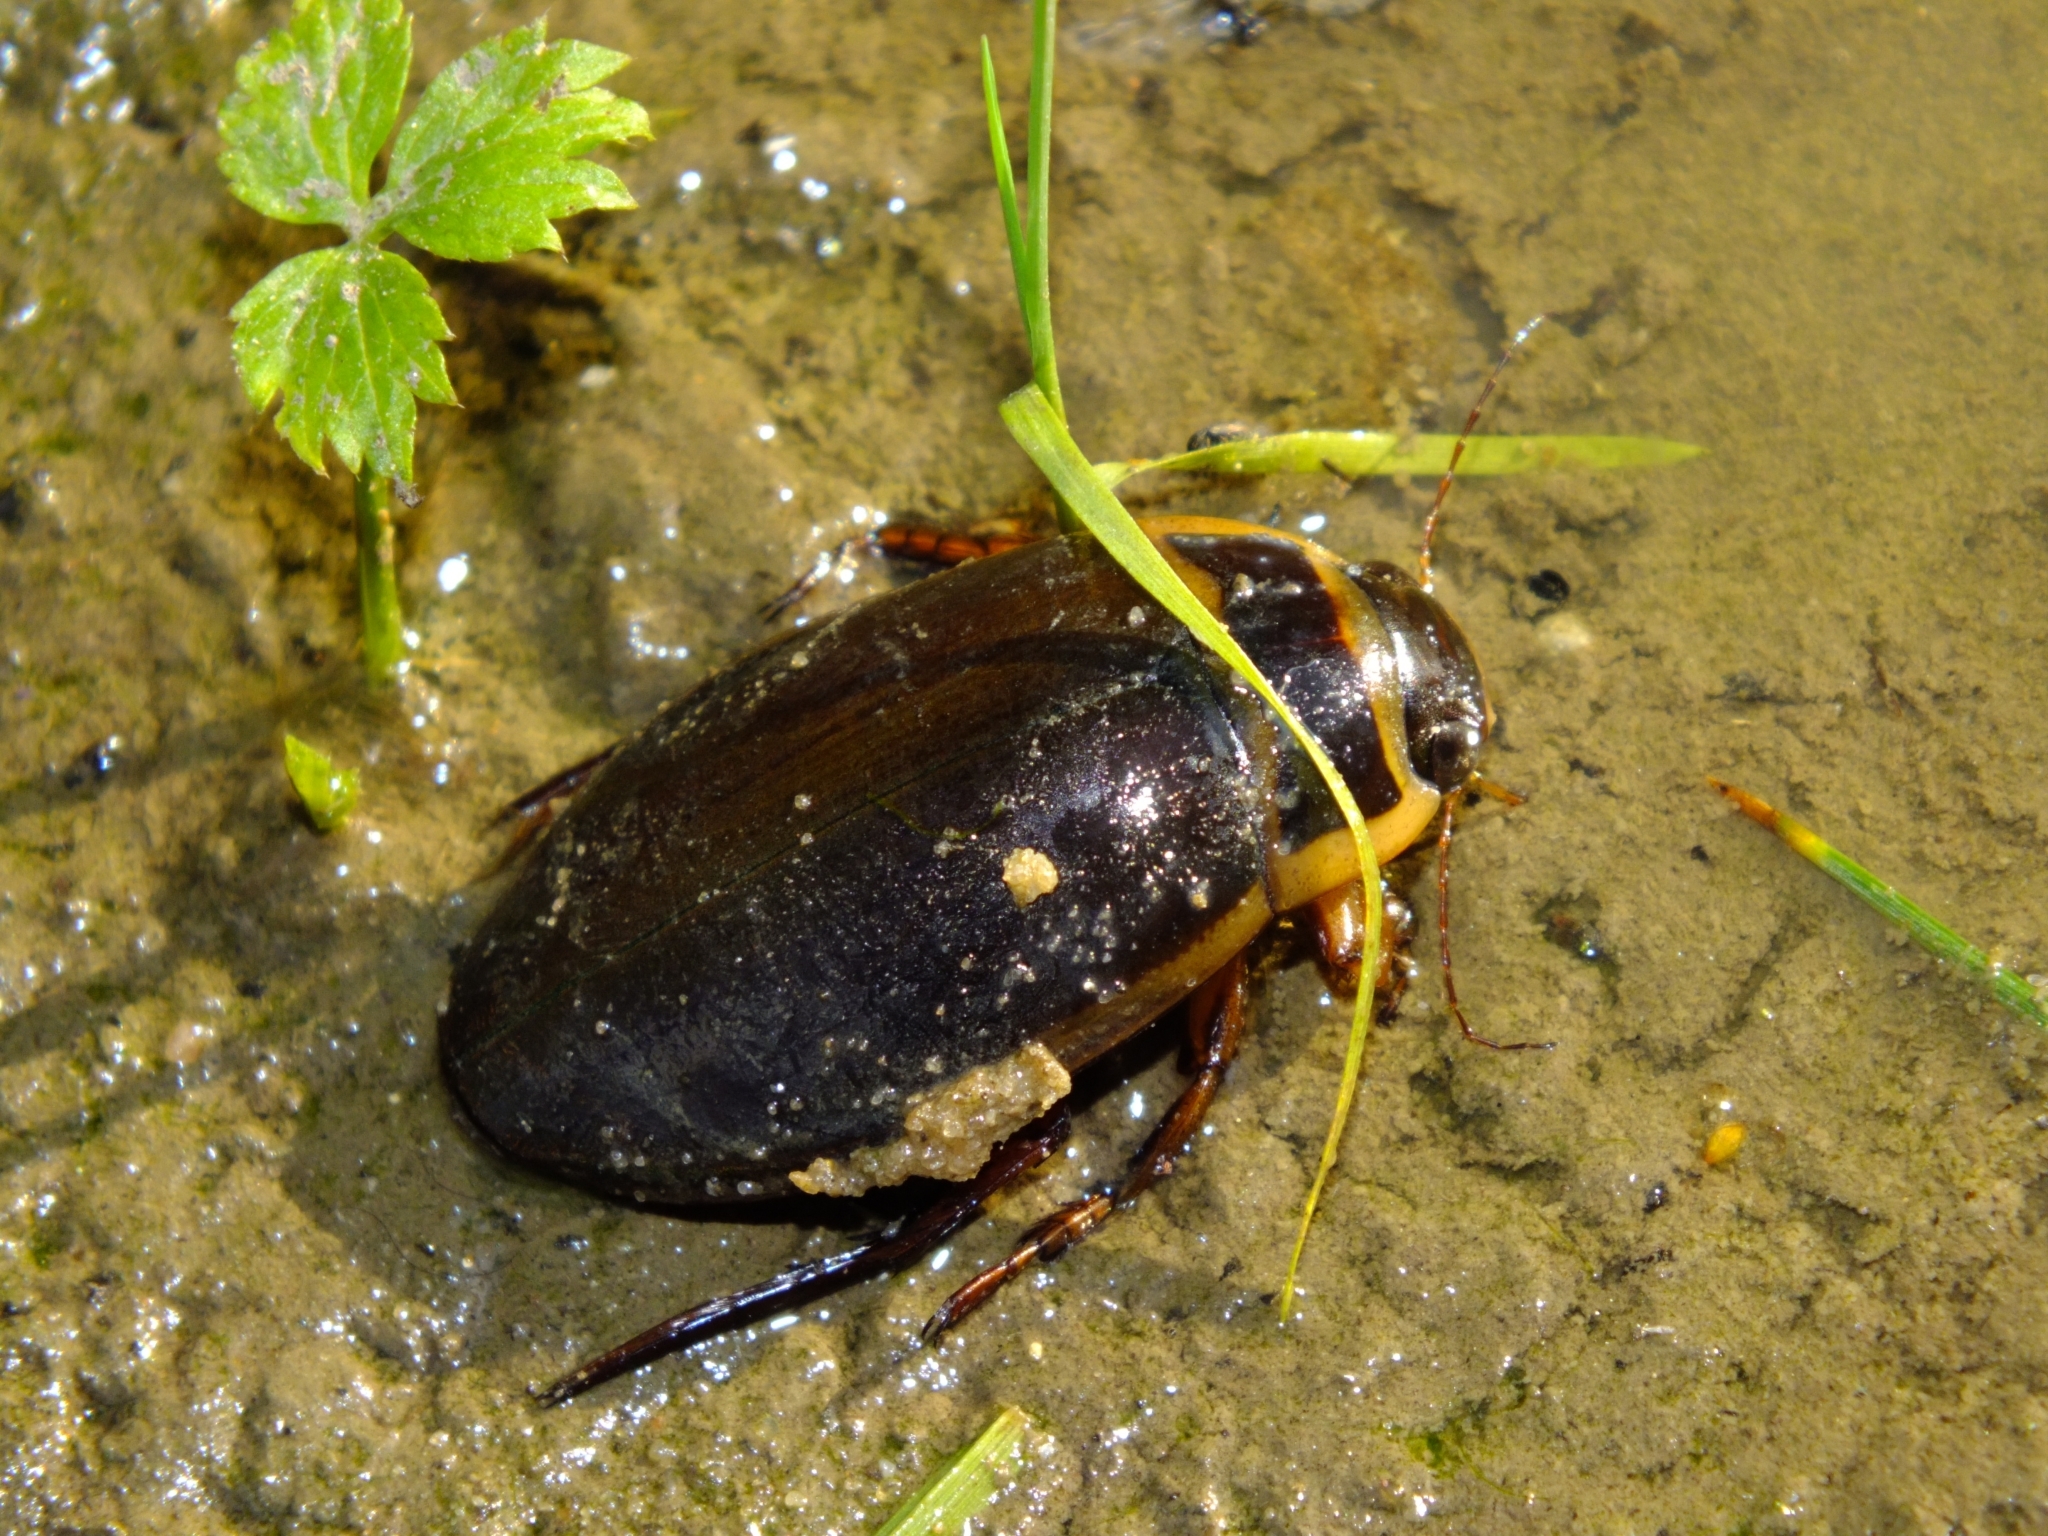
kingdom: Animalia
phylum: Arthropoda
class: Insecta
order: Coleoptera
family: Dytiscidae
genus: Dytiscus
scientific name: Dytiscus marginalis
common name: Great water beetle
